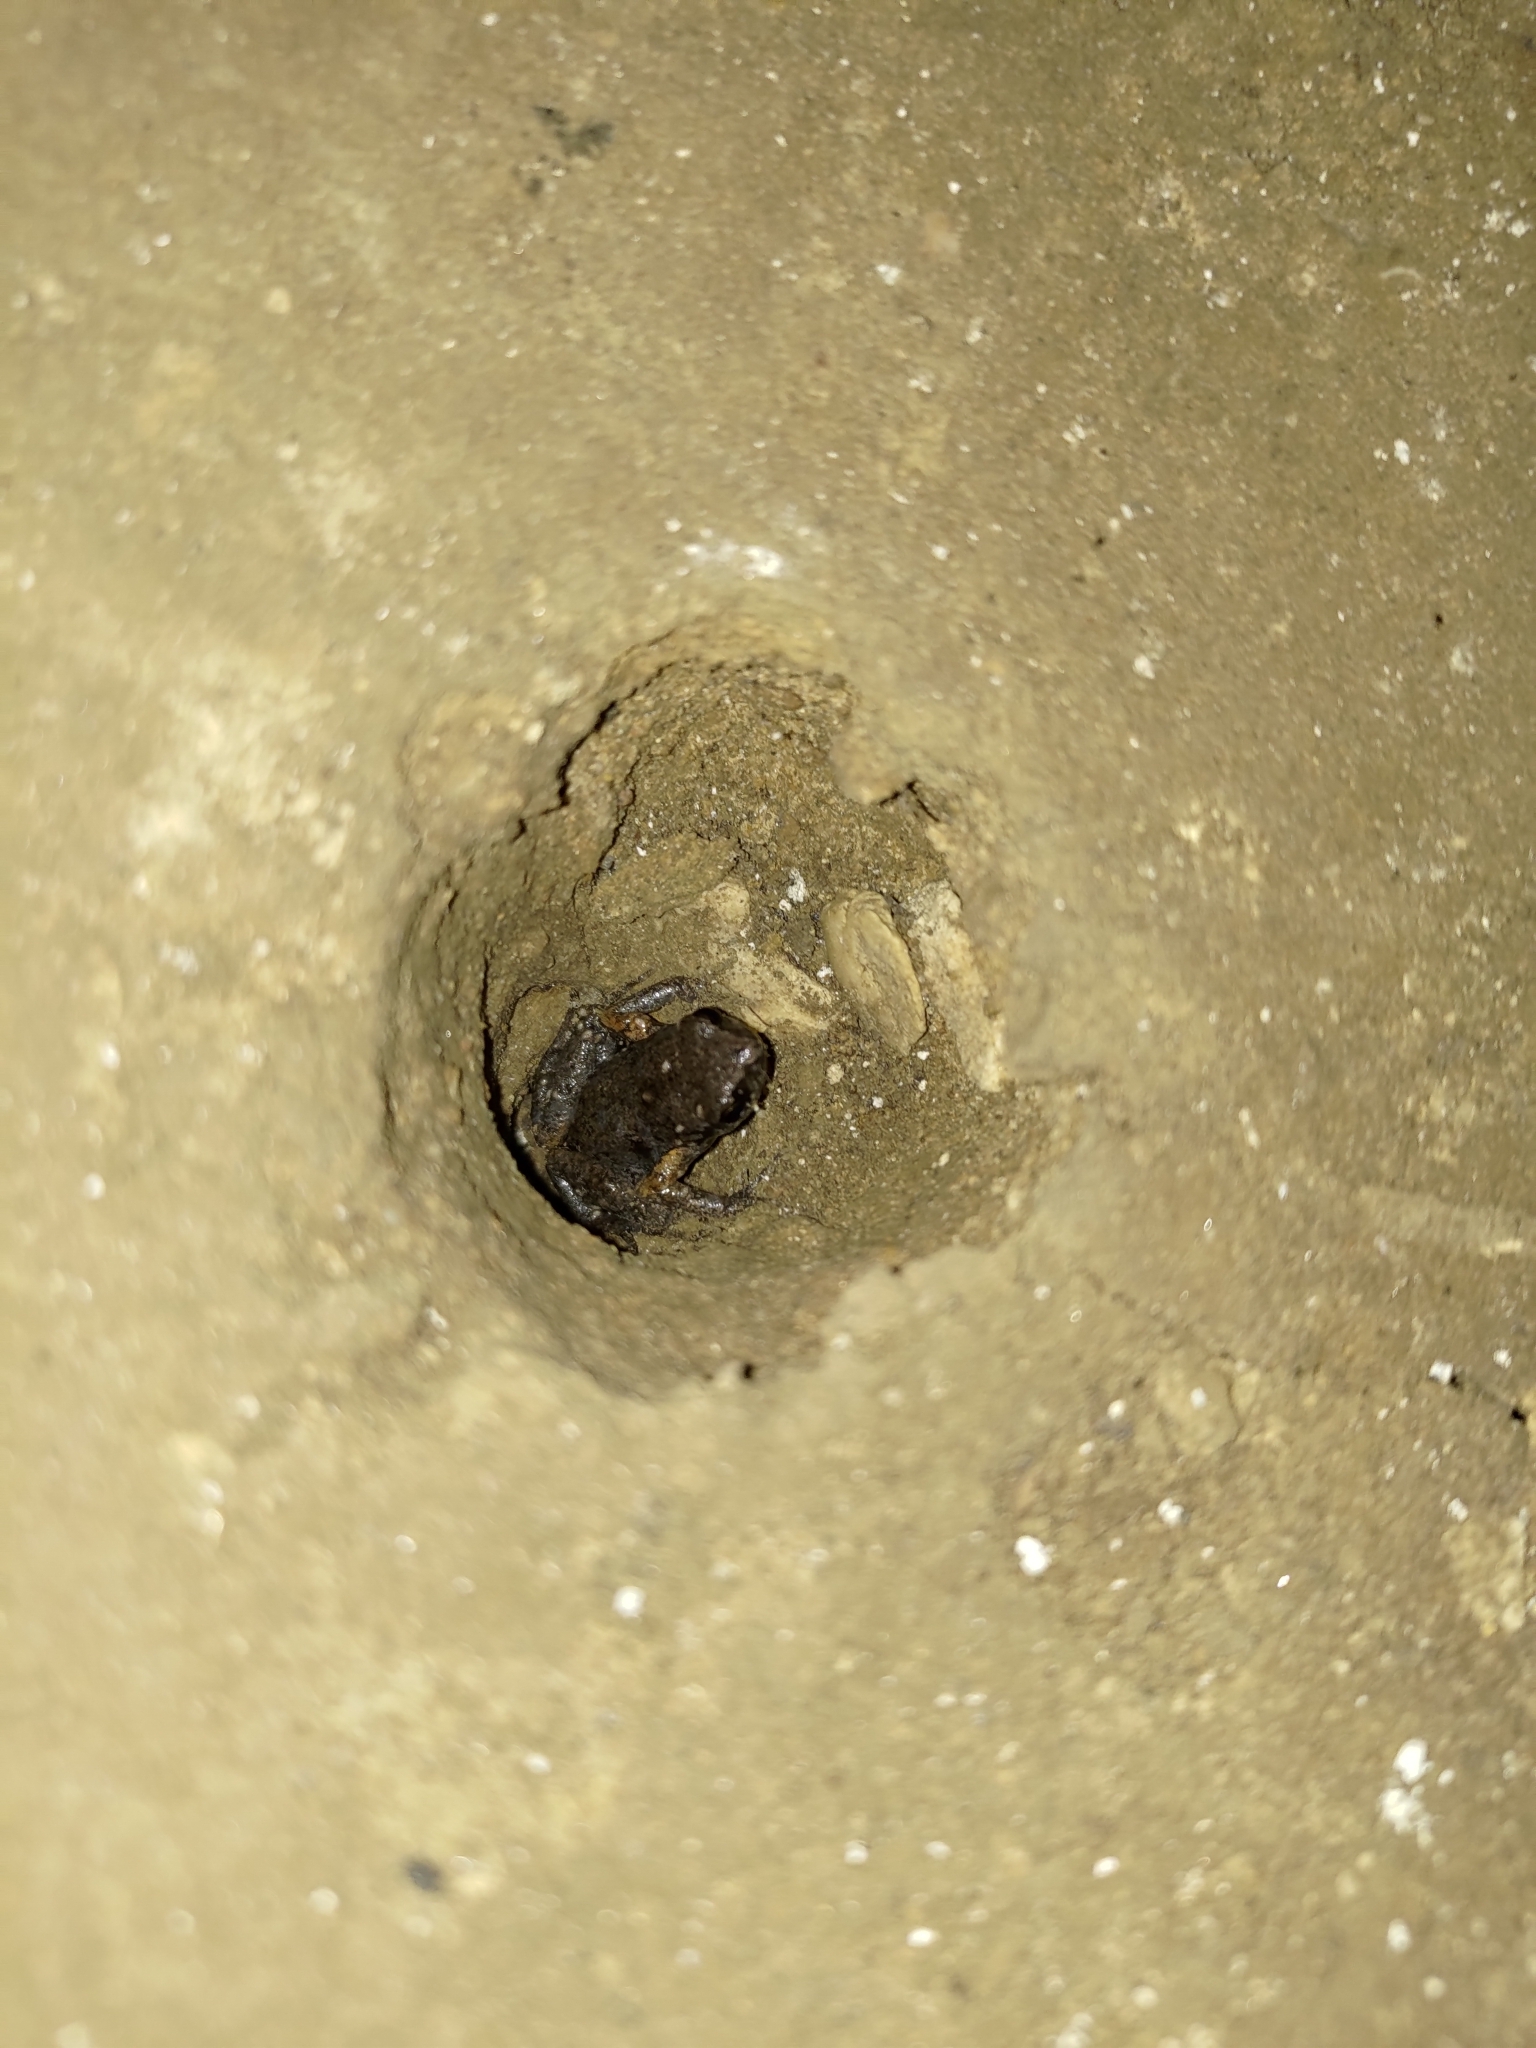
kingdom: Animalia
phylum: Chordata
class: Amphibia
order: Anura
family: Microhylidae
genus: Micryletta
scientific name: Micryletta steinegeri
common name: Stejneger's paddy frog
